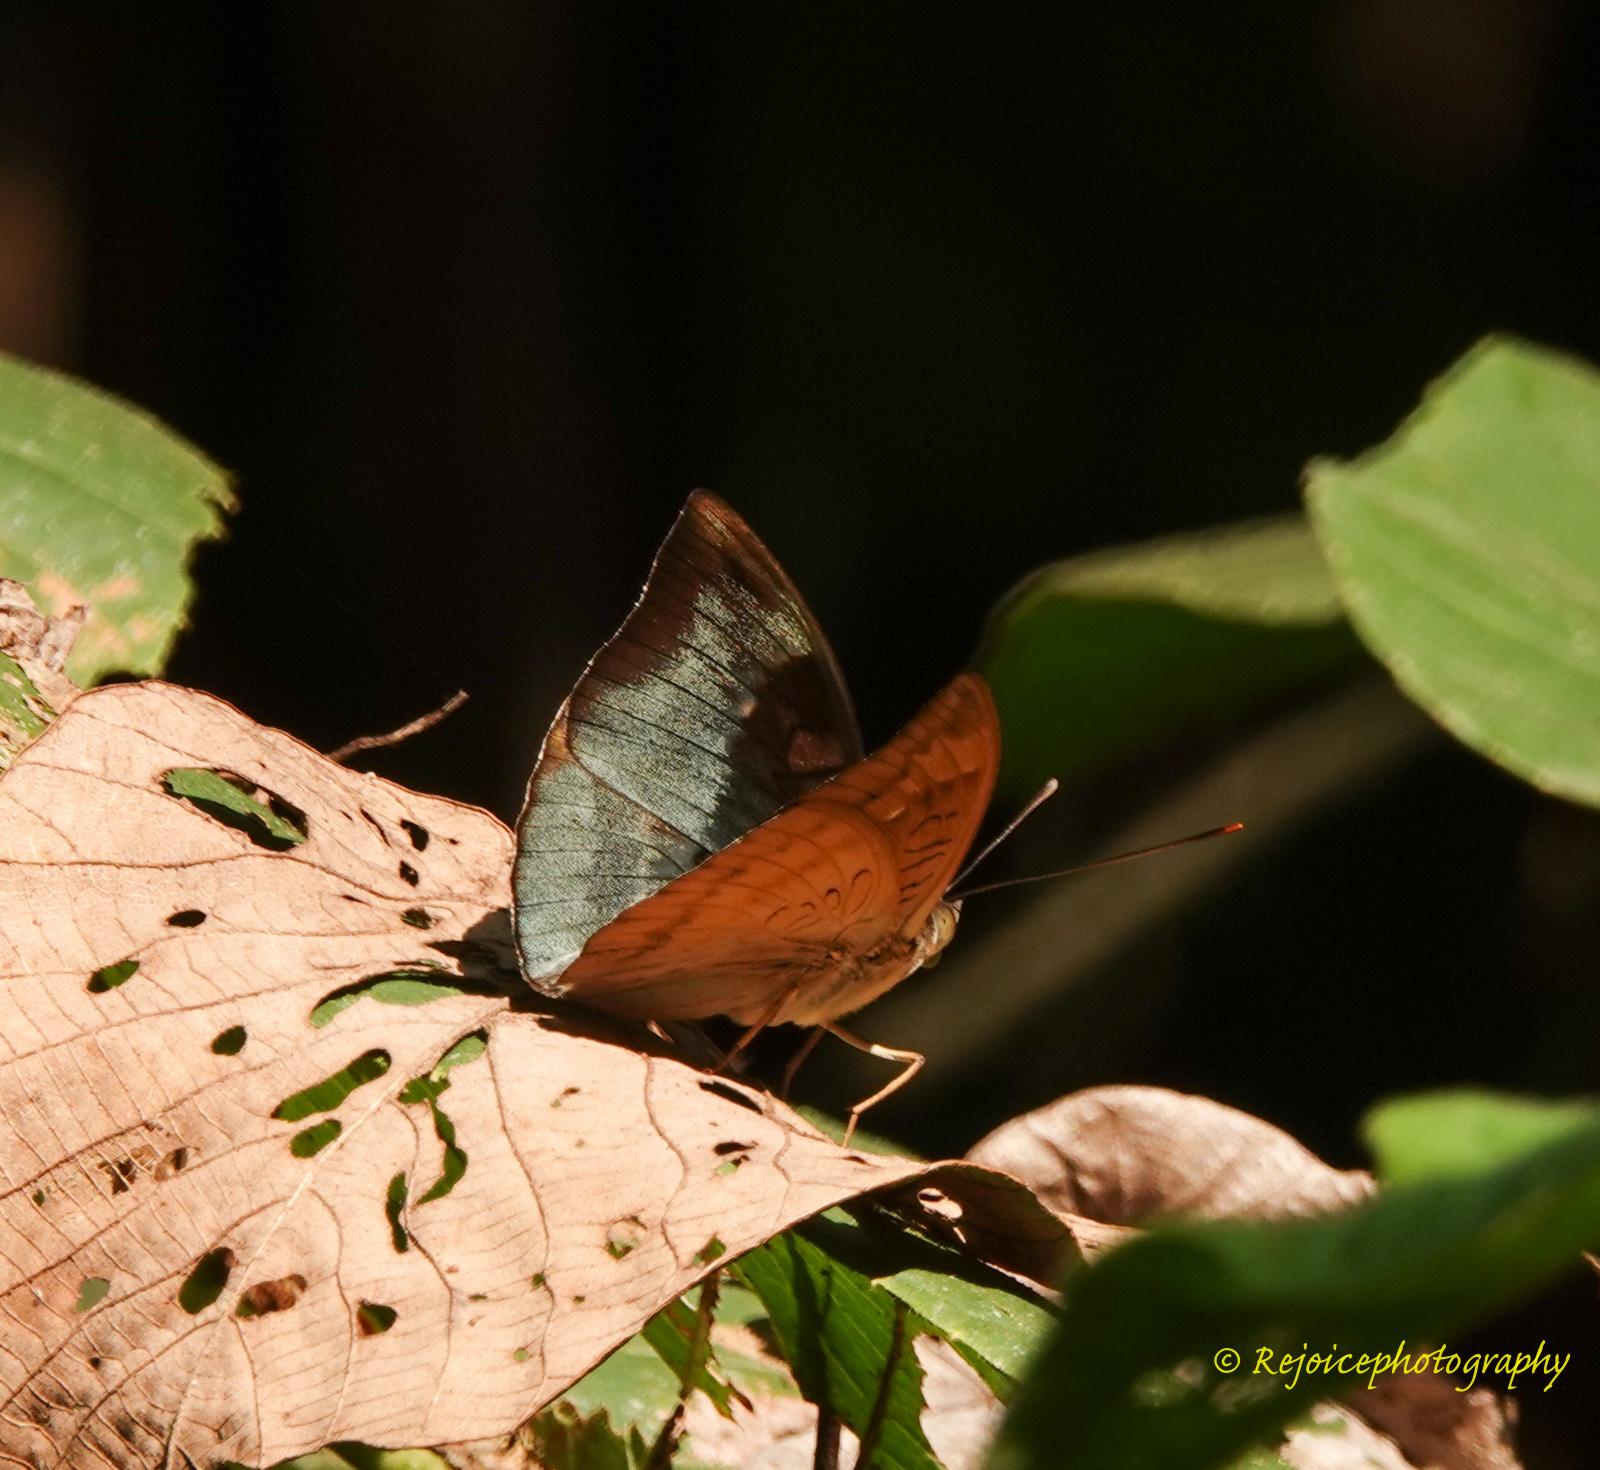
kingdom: Animalia
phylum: Arthropoda
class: Insecta
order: Lepidoptera
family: Nymphalidae
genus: Euthalia
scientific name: Euthalia monina
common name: Powdered baron
